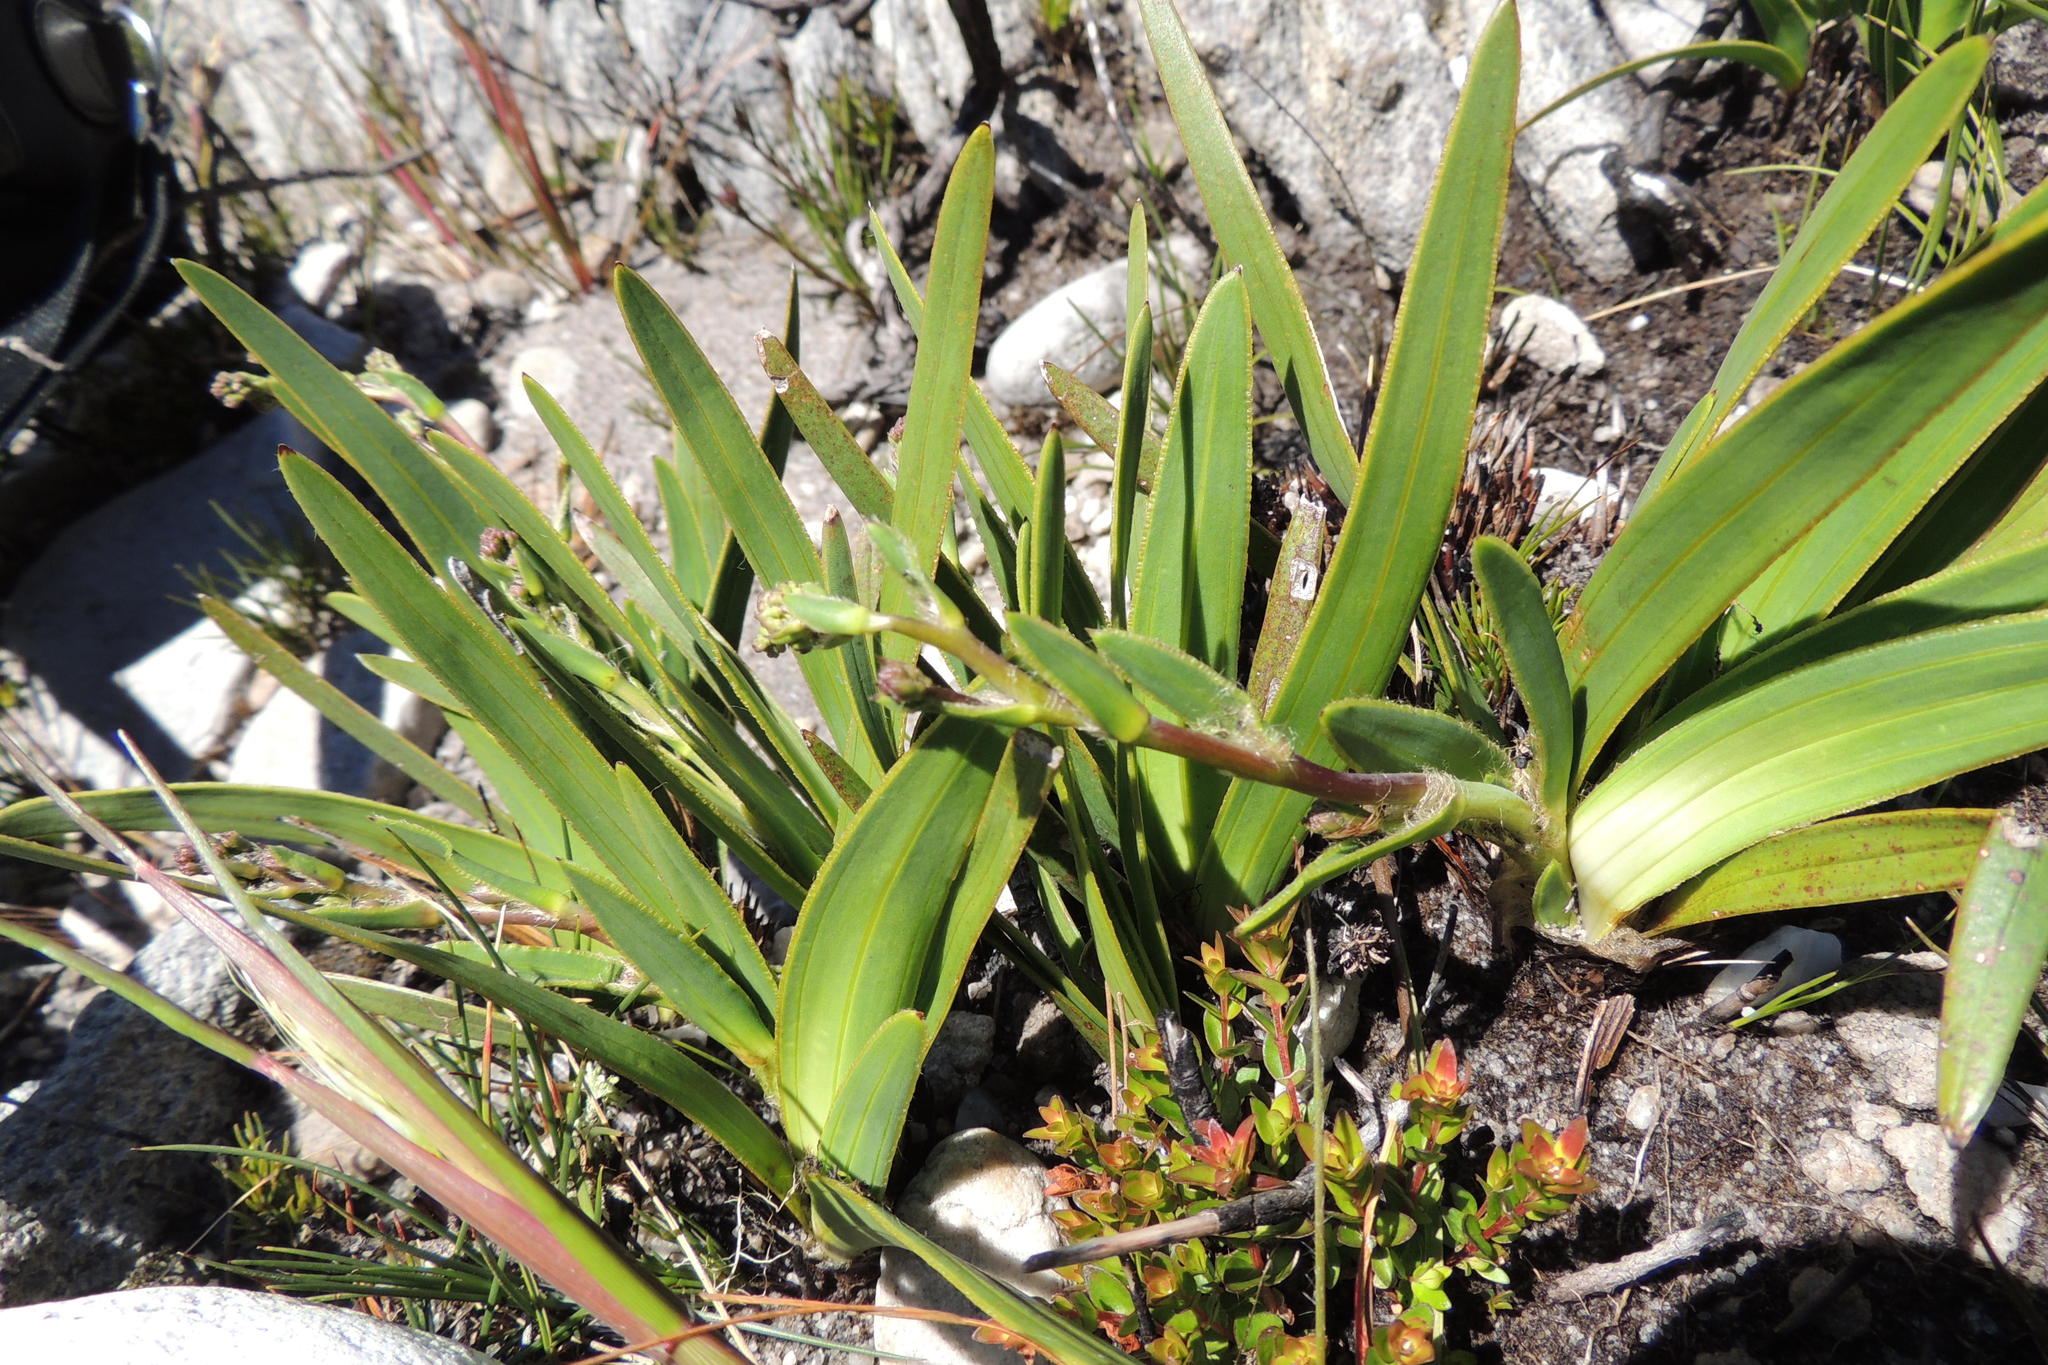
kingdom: Plantae
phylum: Tracheophyta
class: Magnoliopsida
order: Asterales
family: Asteraceae
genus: Corymbium
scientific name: Corymbium glabrum
